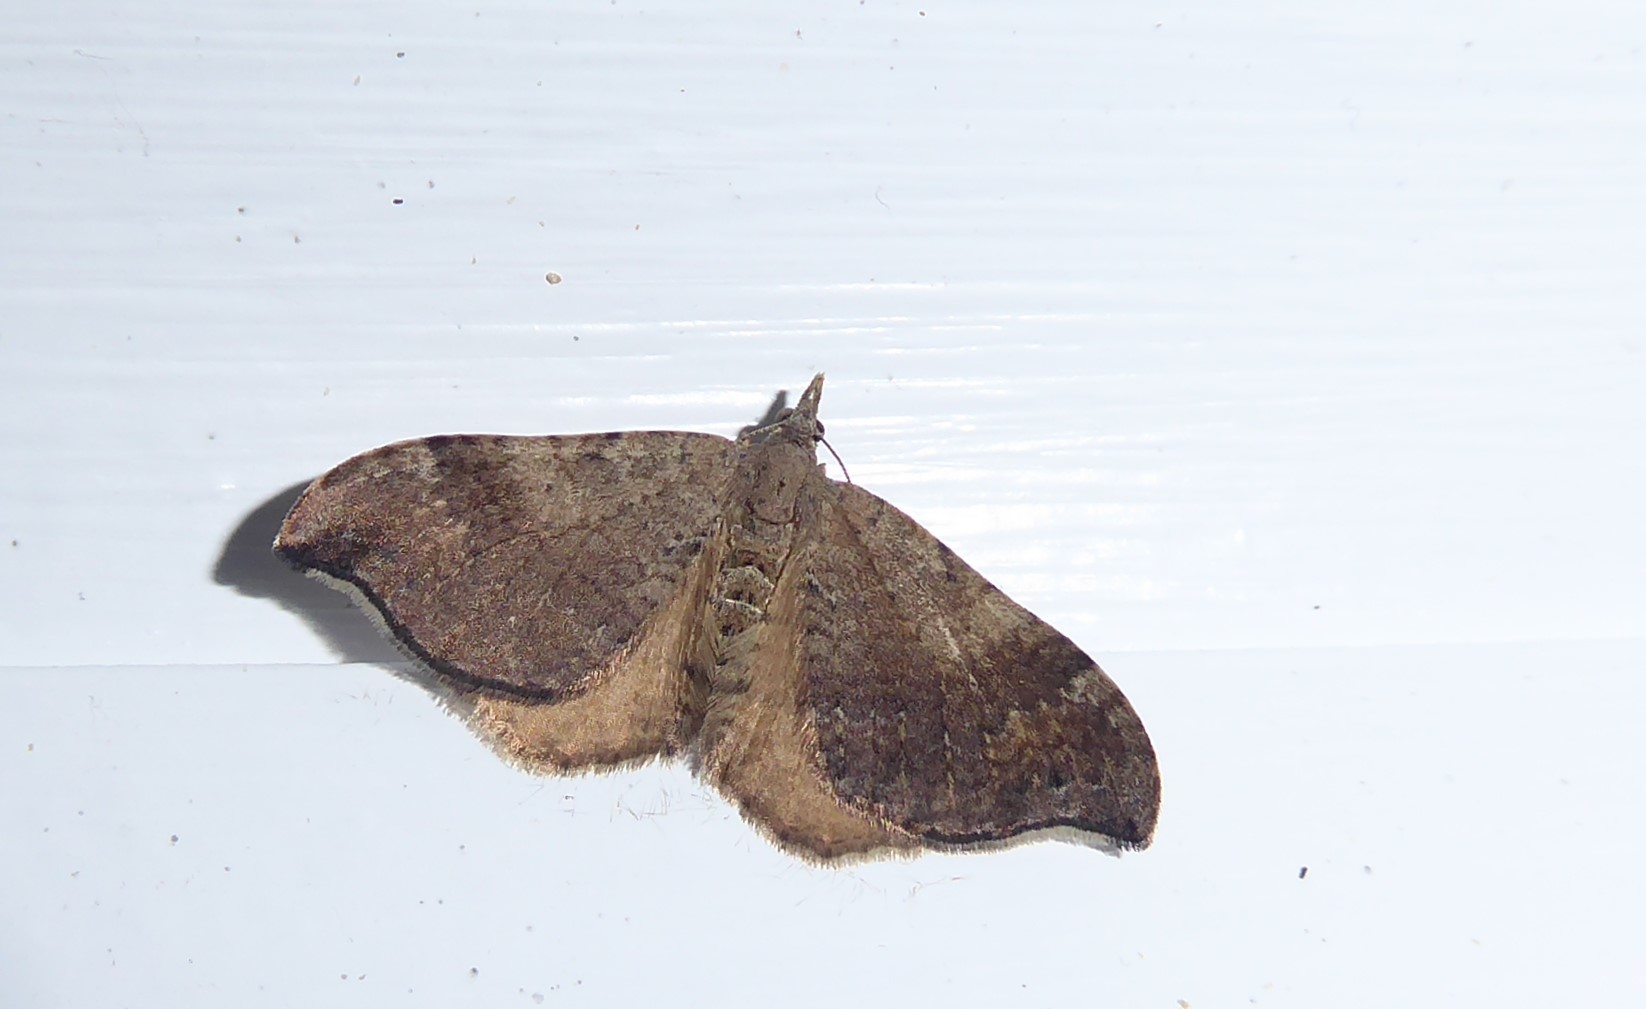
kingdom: Animalia
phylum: Arthropoda
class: Insecta
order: Lepidoptera
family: Geometridae
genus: Homodotis
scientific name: Homodotis megaspilata
